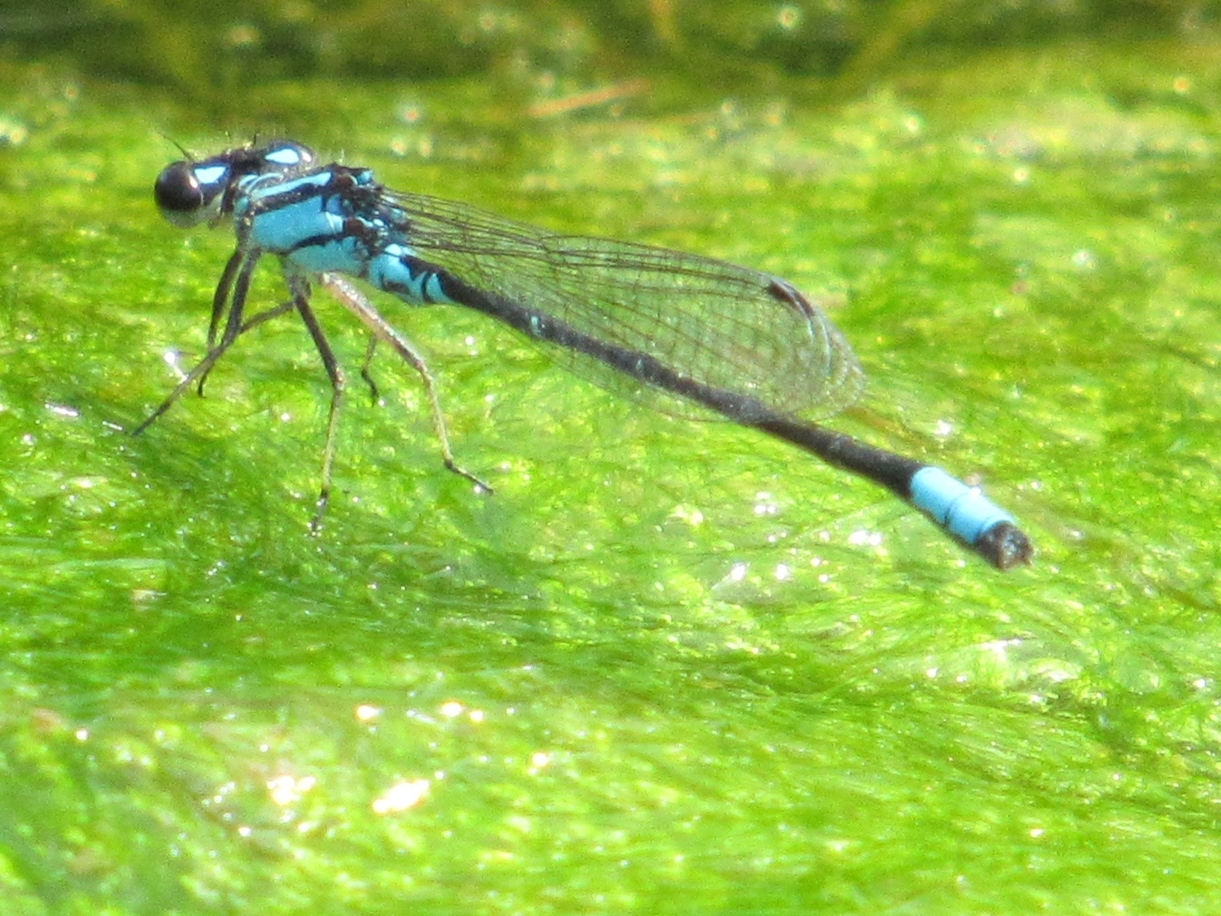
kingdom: Animalia
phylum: Arthropoda
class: Insecta
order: Odonata
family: Coenagrionidae
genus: Enallagma
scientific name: Enallagma geminatum
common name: Skimming bluet
